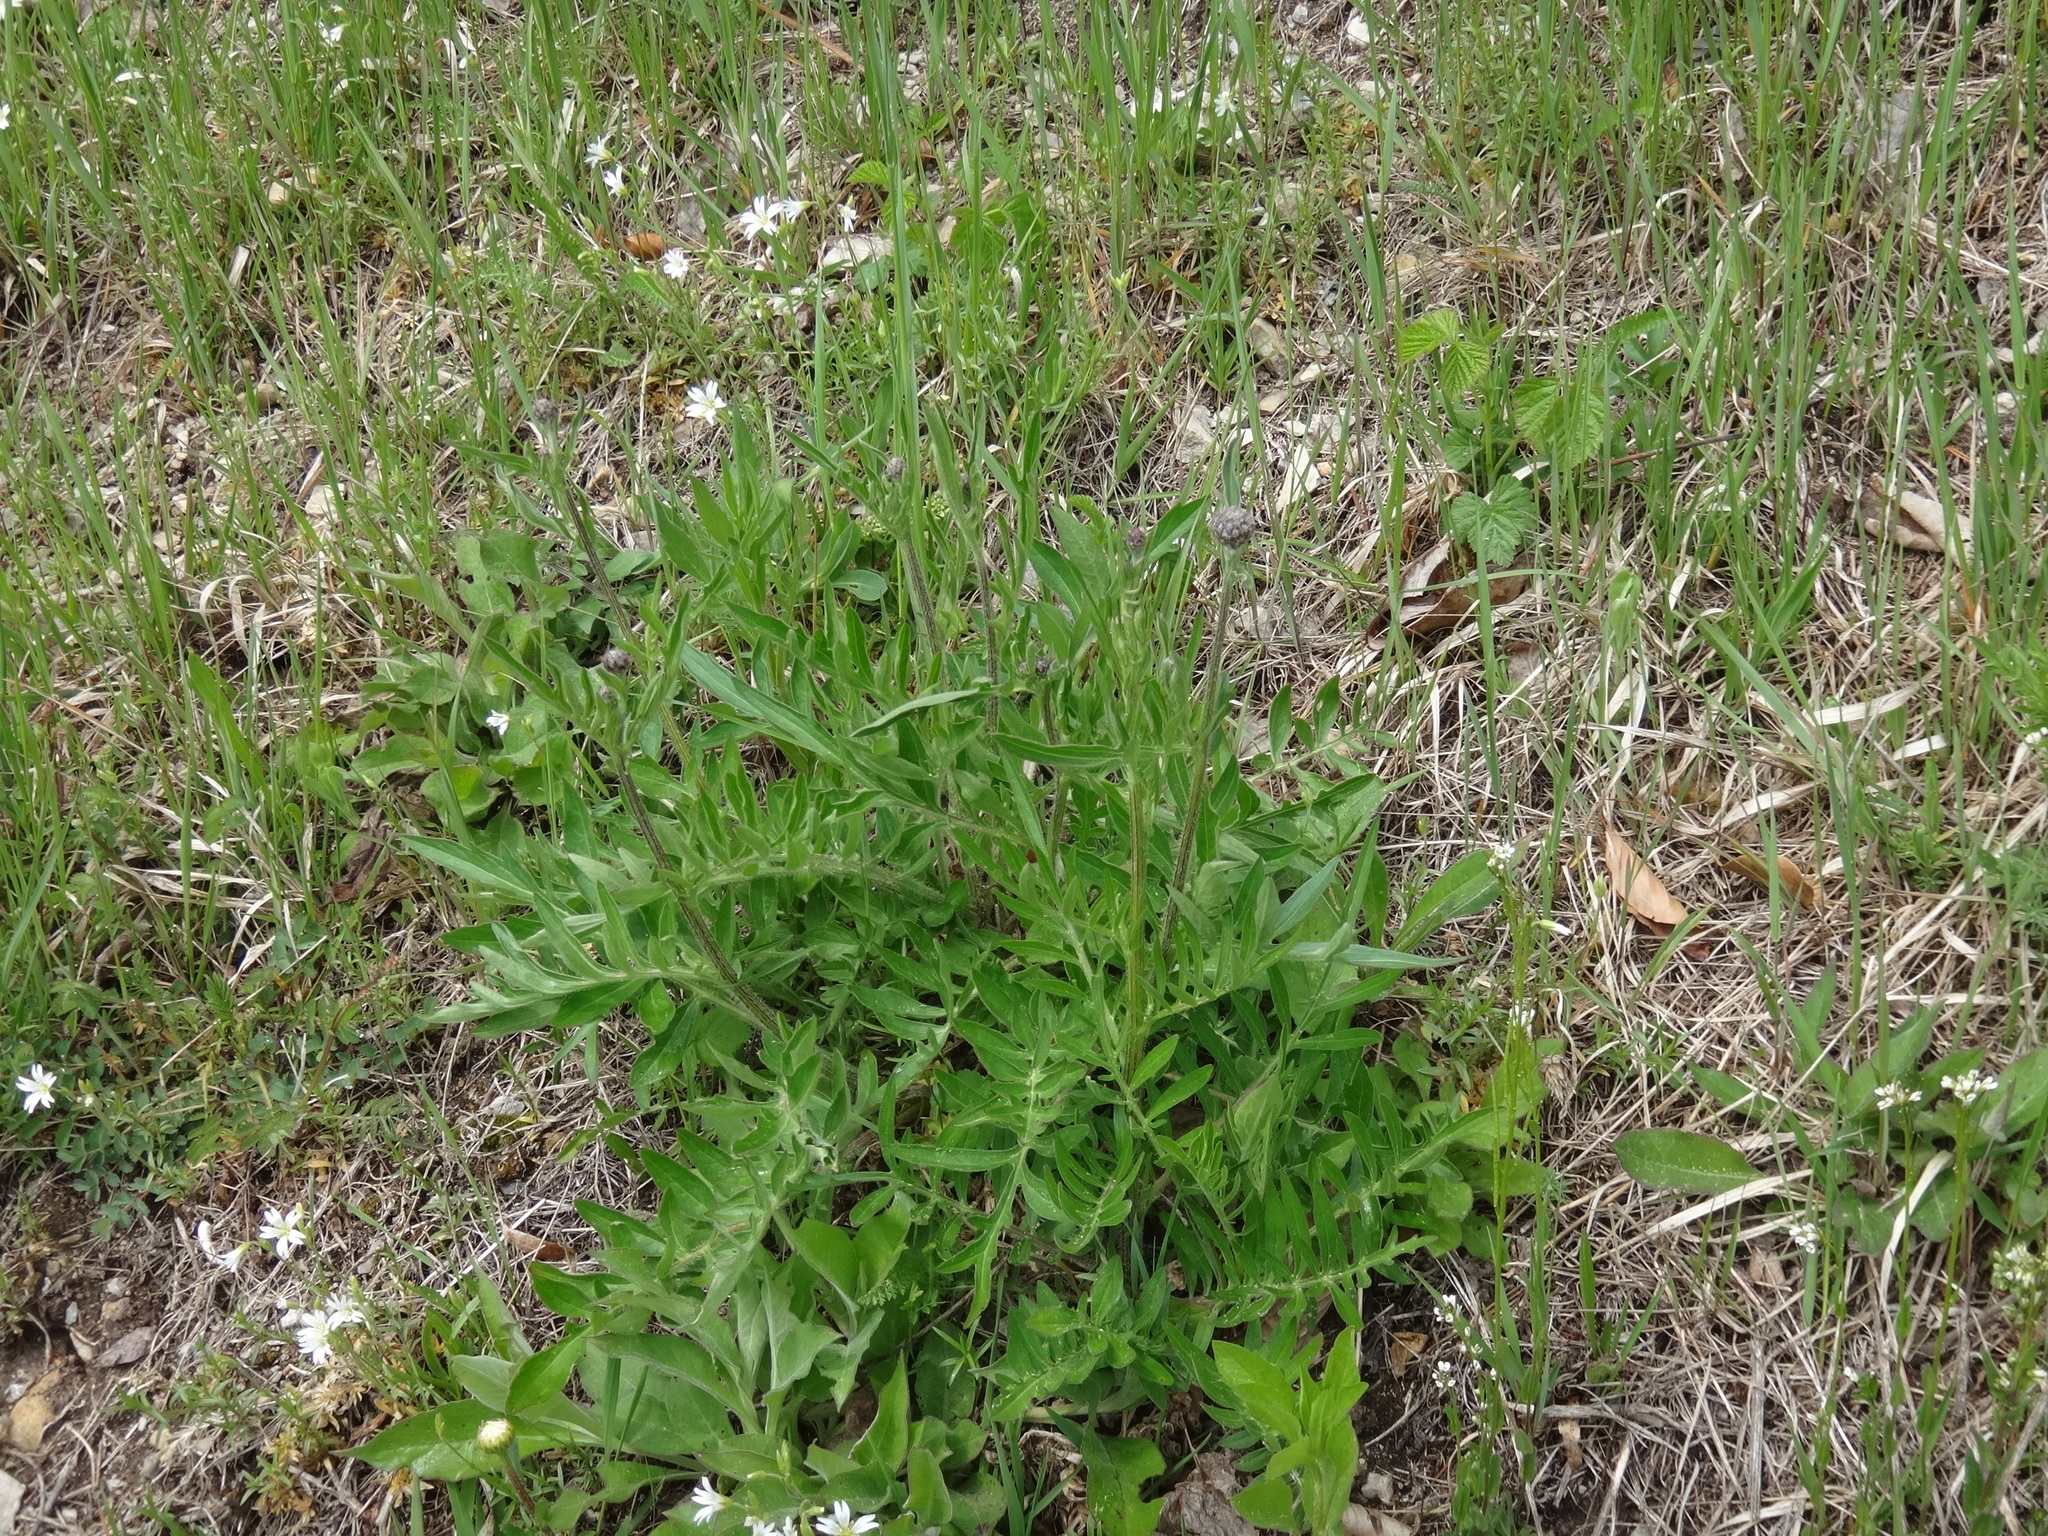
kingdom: Plantae
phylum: Tracheophyta
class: Magnoliopsida
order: Asterales
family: Asteraceae
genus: Centaurea
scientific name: Centaurea scabiosa
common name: Greater knapweed
